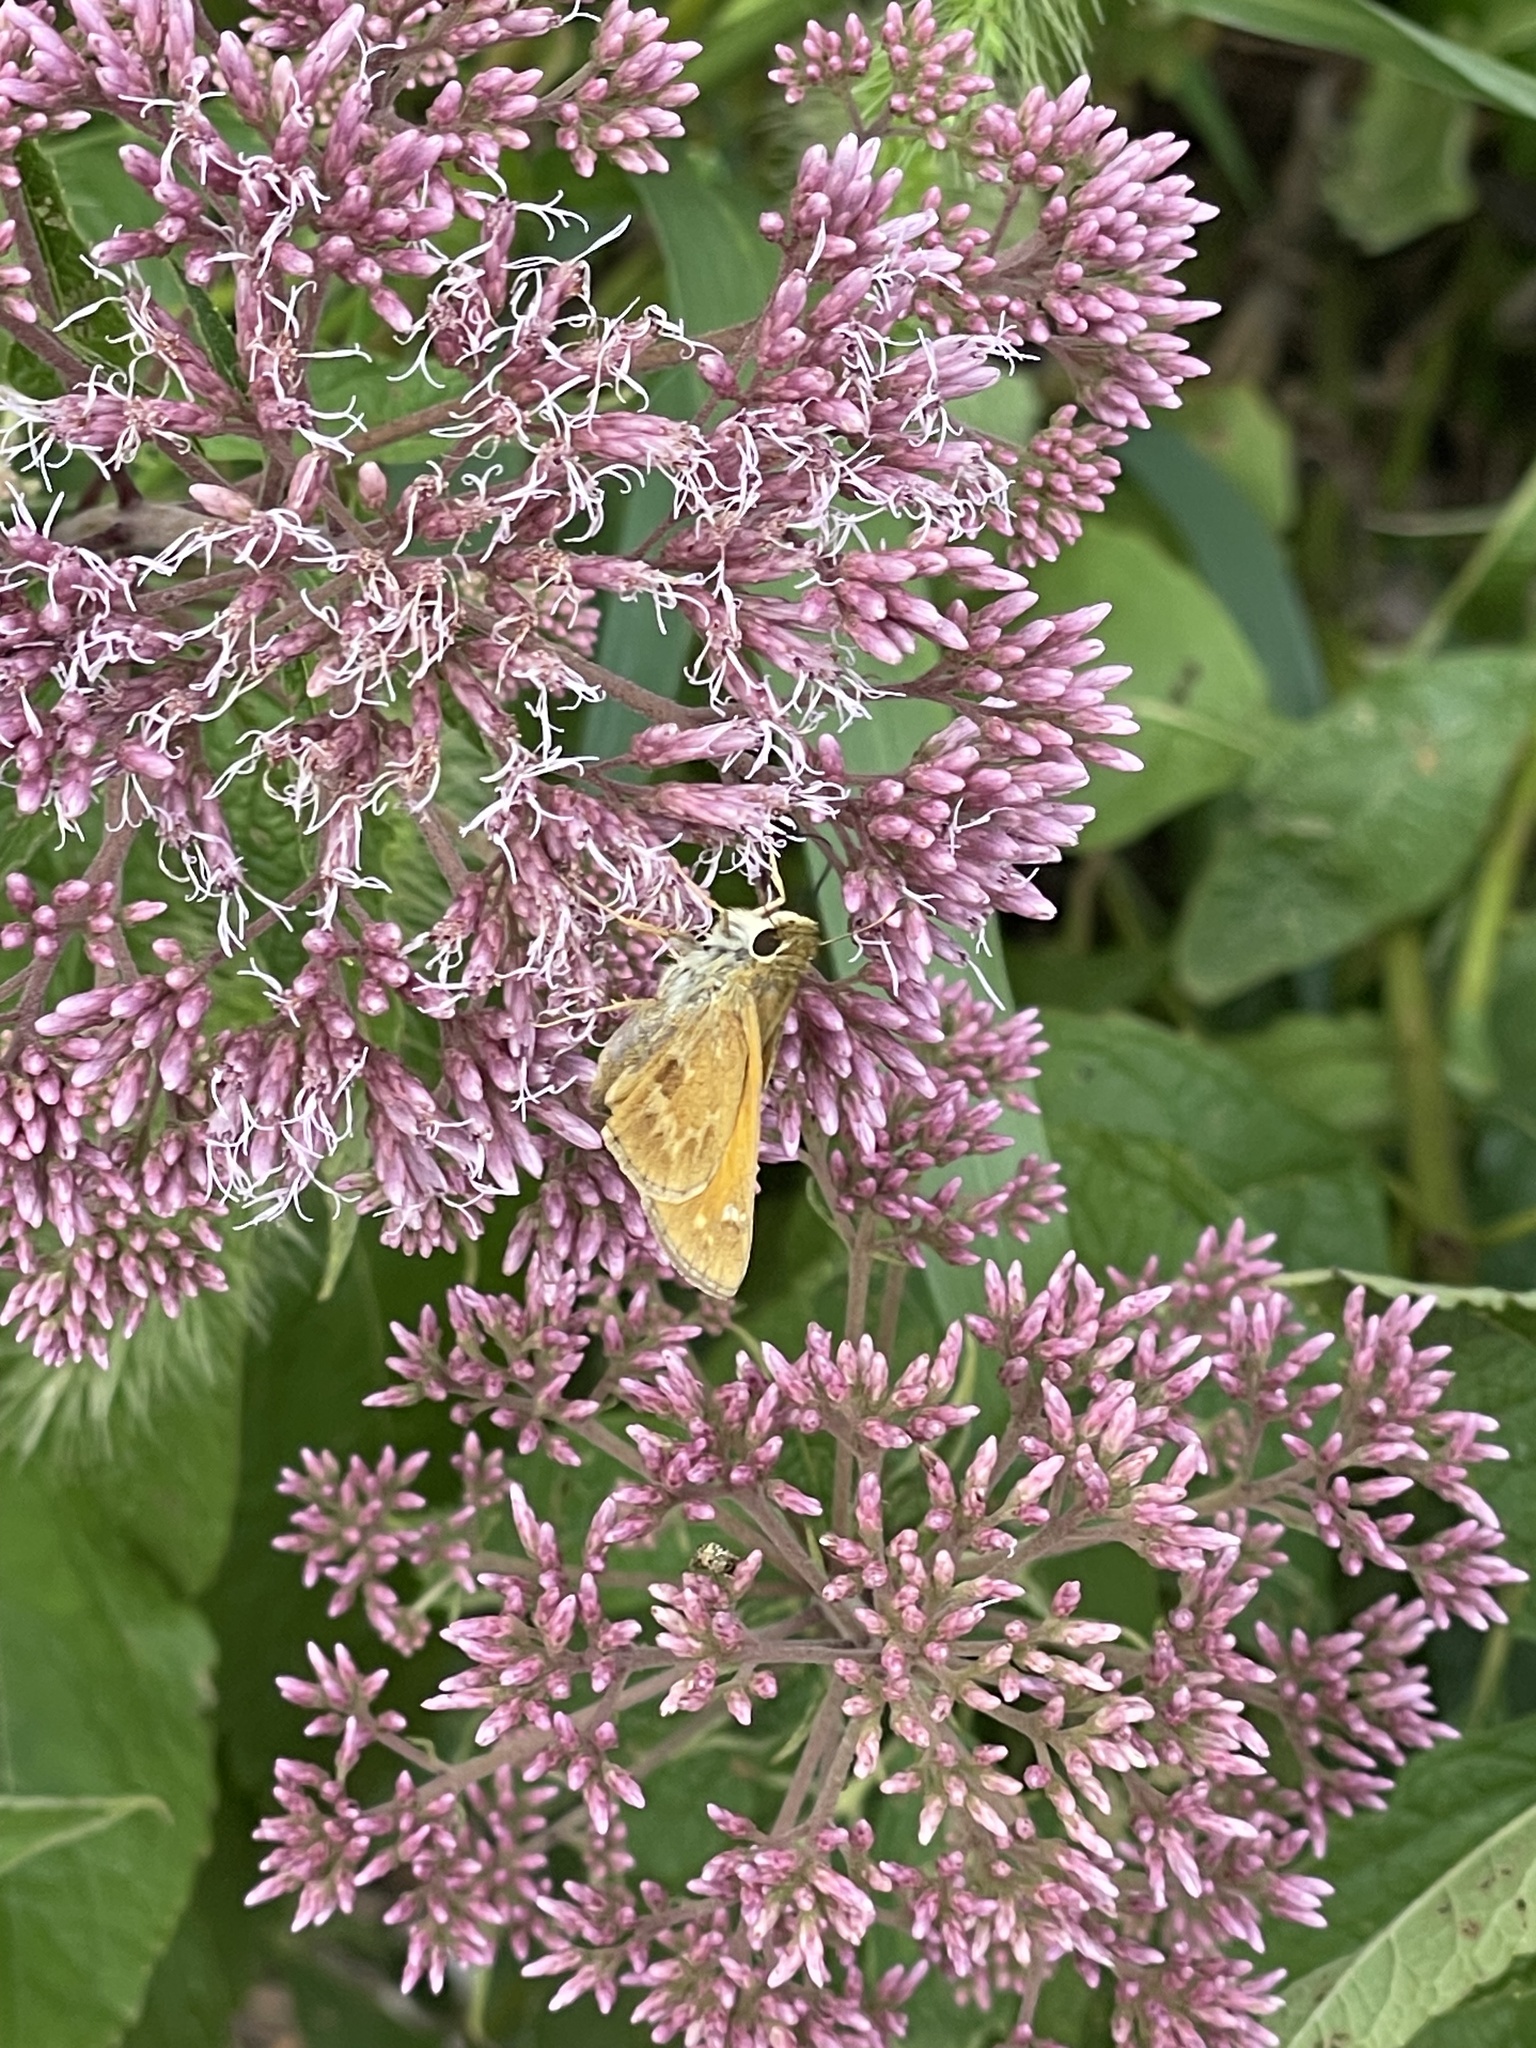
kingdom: Animalia
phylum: Arthropoda
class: Insecta
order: Lepidoptera
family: Hesperiidae
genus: Atalopedes
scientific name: Atalopedes
